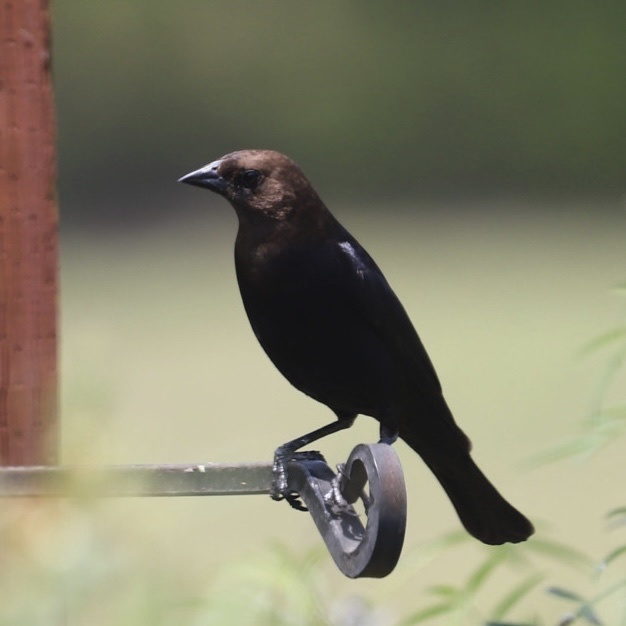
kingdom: Animalia
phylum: Chordata
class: Aves
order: Passeriformes
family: Icteridae
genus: Molothrus
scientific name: Molothrus ater
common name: Brown-headed cowbird
